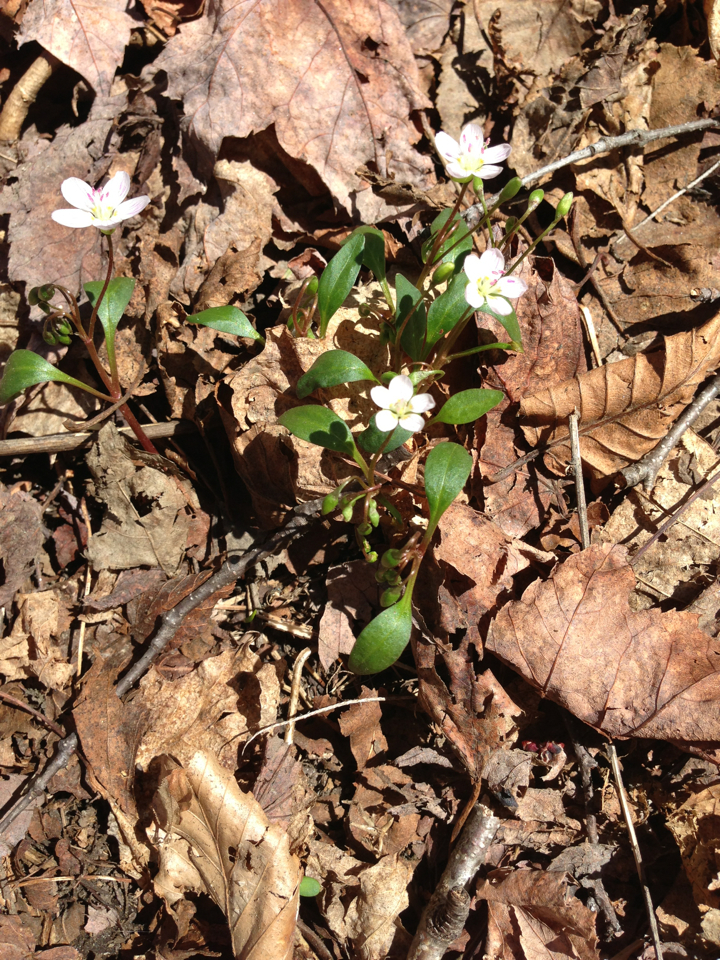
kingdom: Plantae
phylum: Tracheophyta
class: Magnoliopsida
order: Caryophyllales
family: Montiaceae
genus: Claytonia
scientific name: Claytonia caroliniana
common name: Carolina spring beauty
